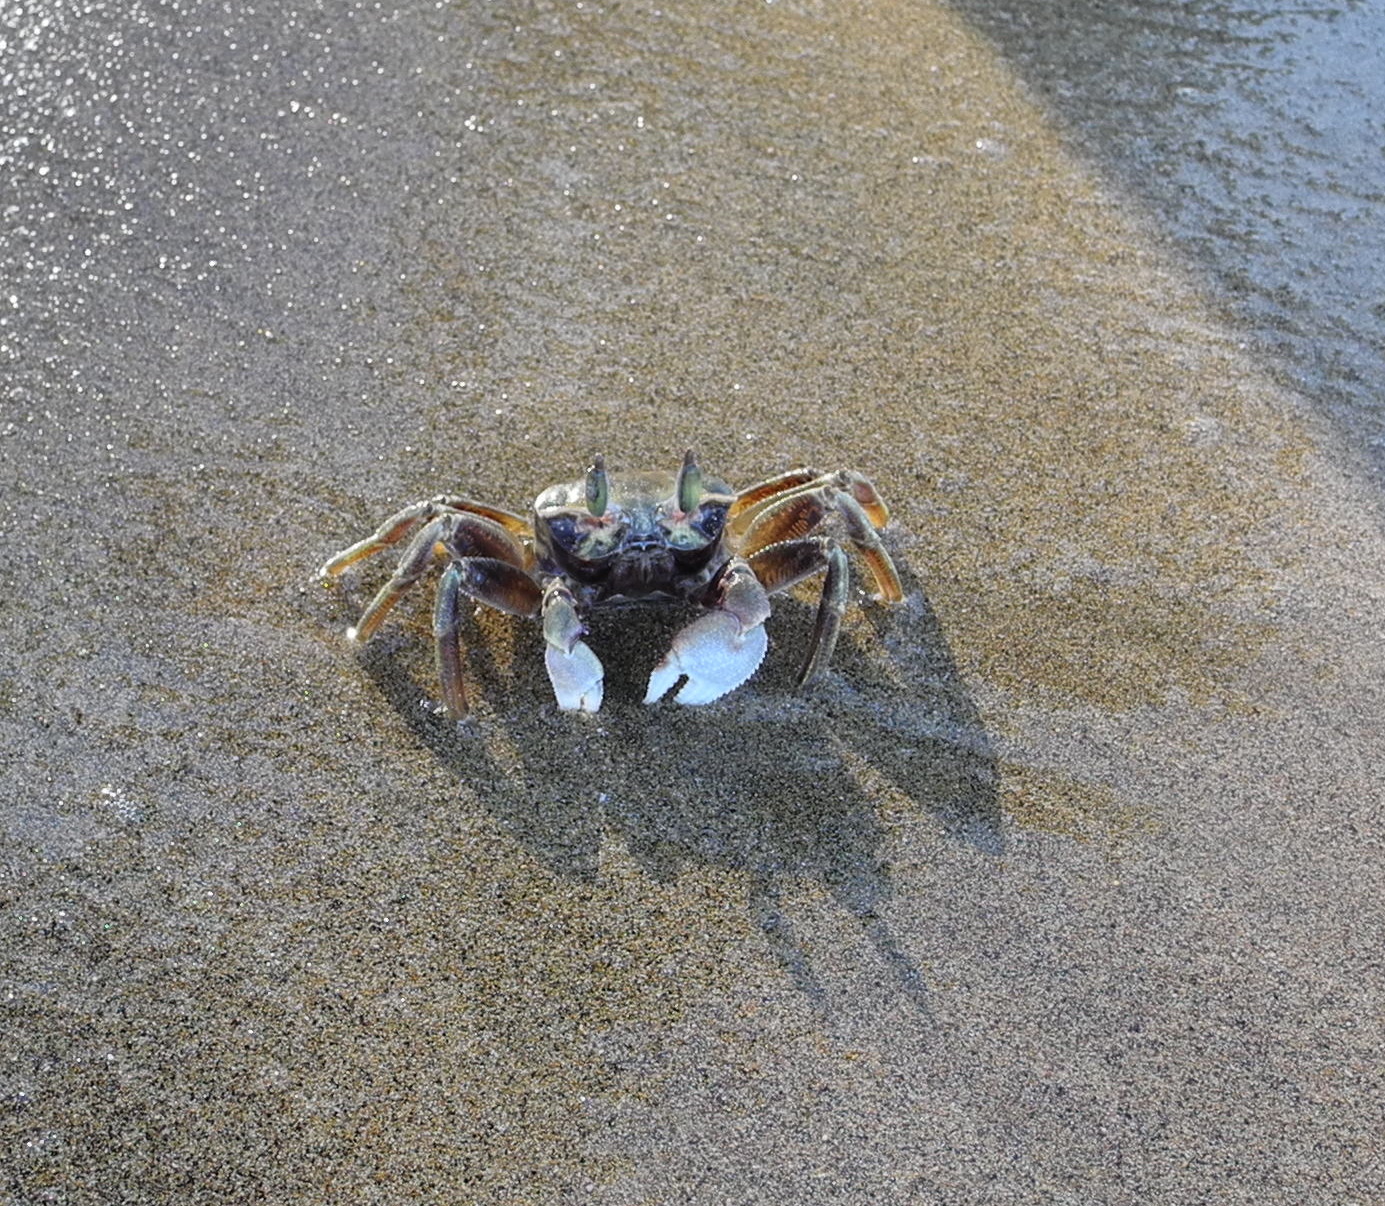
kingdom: Animalia
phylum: Arthropoda
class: Malacostraca
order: Decapoda
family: Ocypodidae
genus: Ocypode
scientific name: Ocypode ceratophthalmus
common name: Indo-pacific ghost crab
